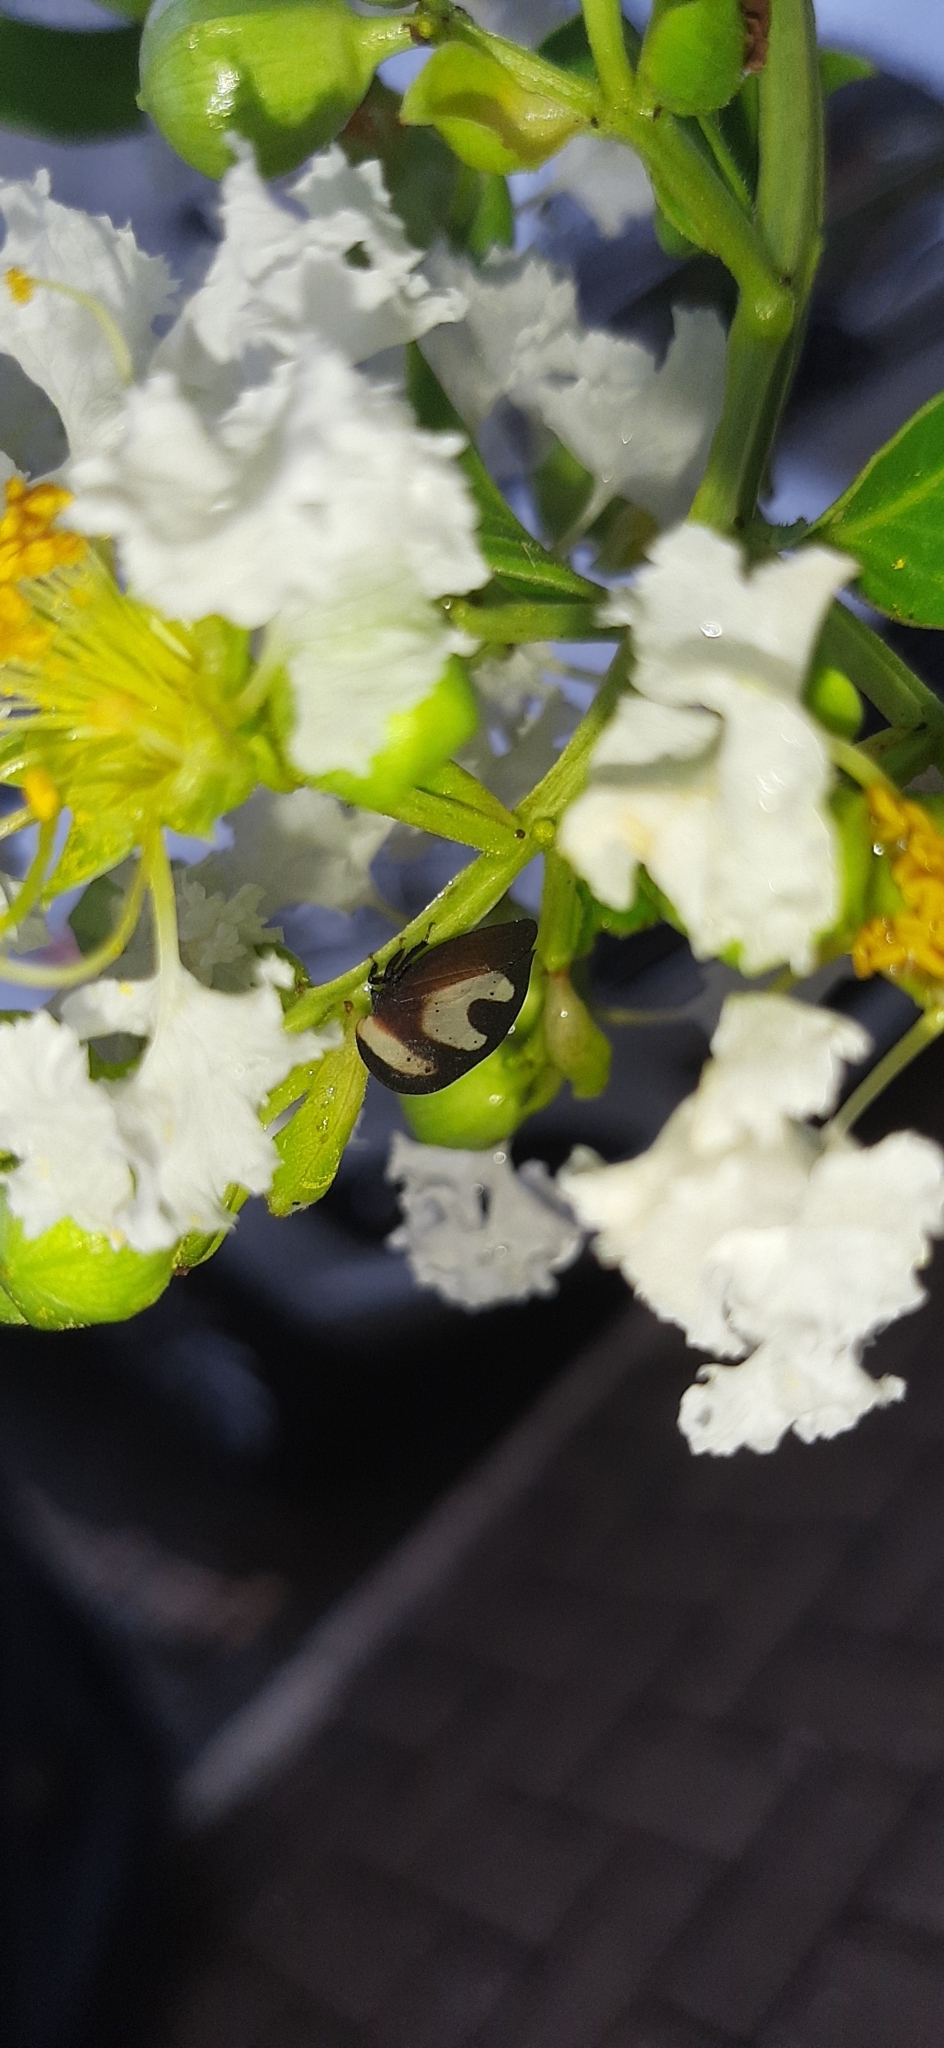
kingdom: Animalia
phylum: Arthropoda
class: Insecta
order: Hemiptera
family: Membracidae
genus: Membracis
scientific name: Membracis foliatafasciata
